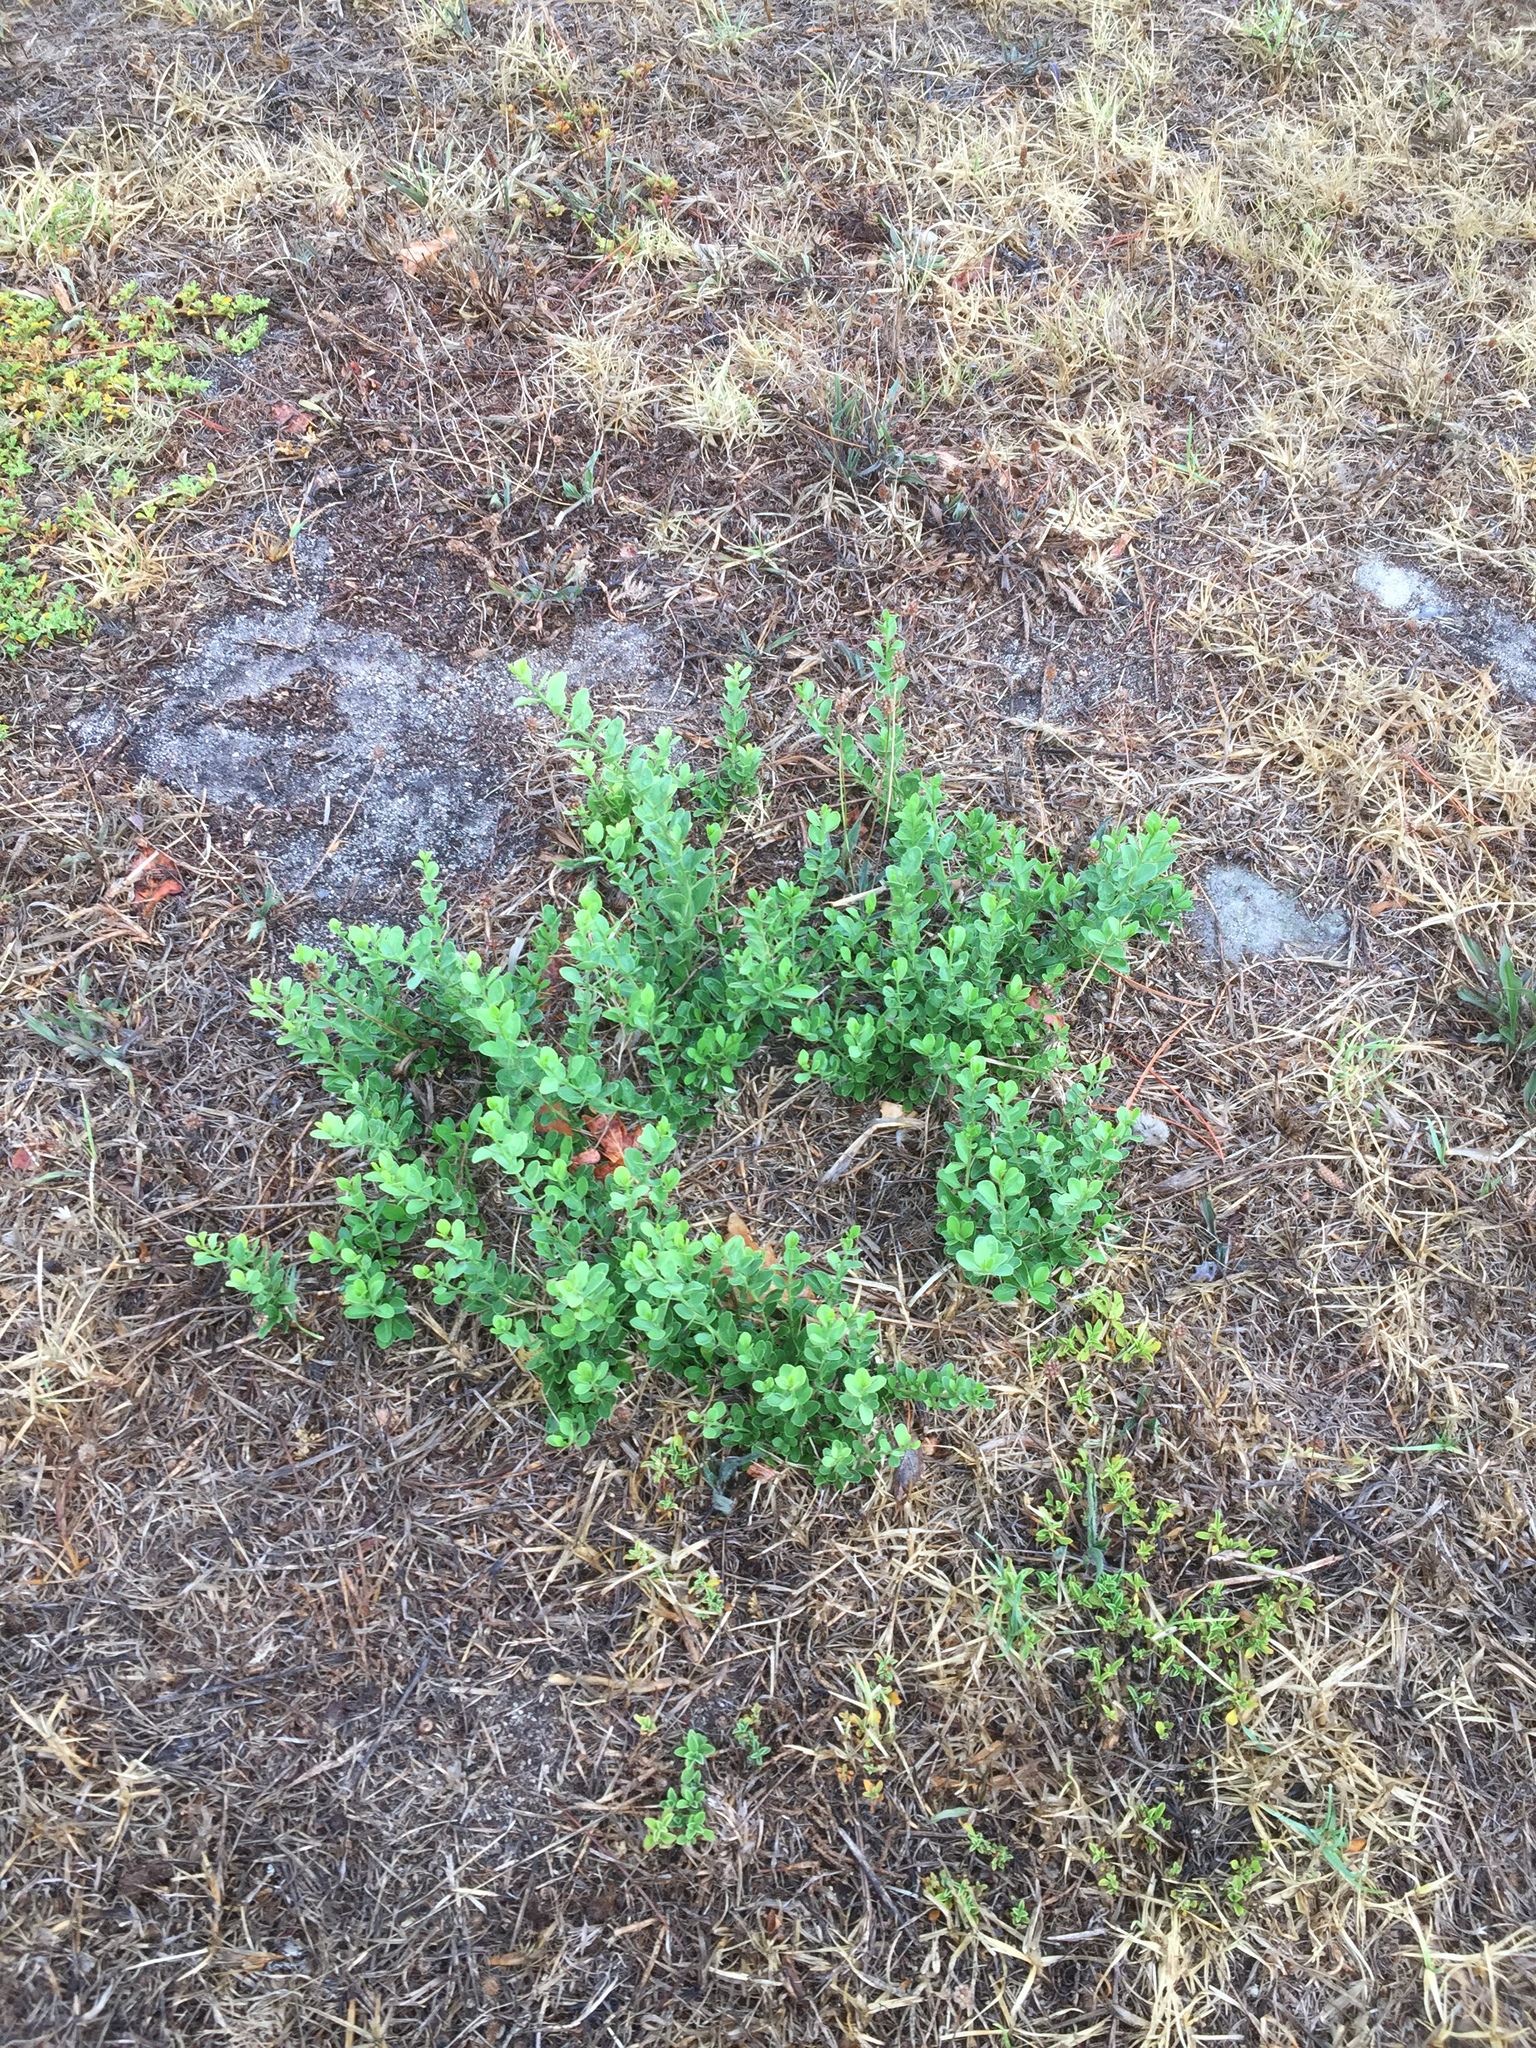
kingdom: Plantae
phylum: Tracheophyta
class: Magnoliopsida
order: Celastrales
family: Celastraceae
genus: Gymnosporia
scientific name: Gymnosporia buxifolia
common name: Common spike-thorn
